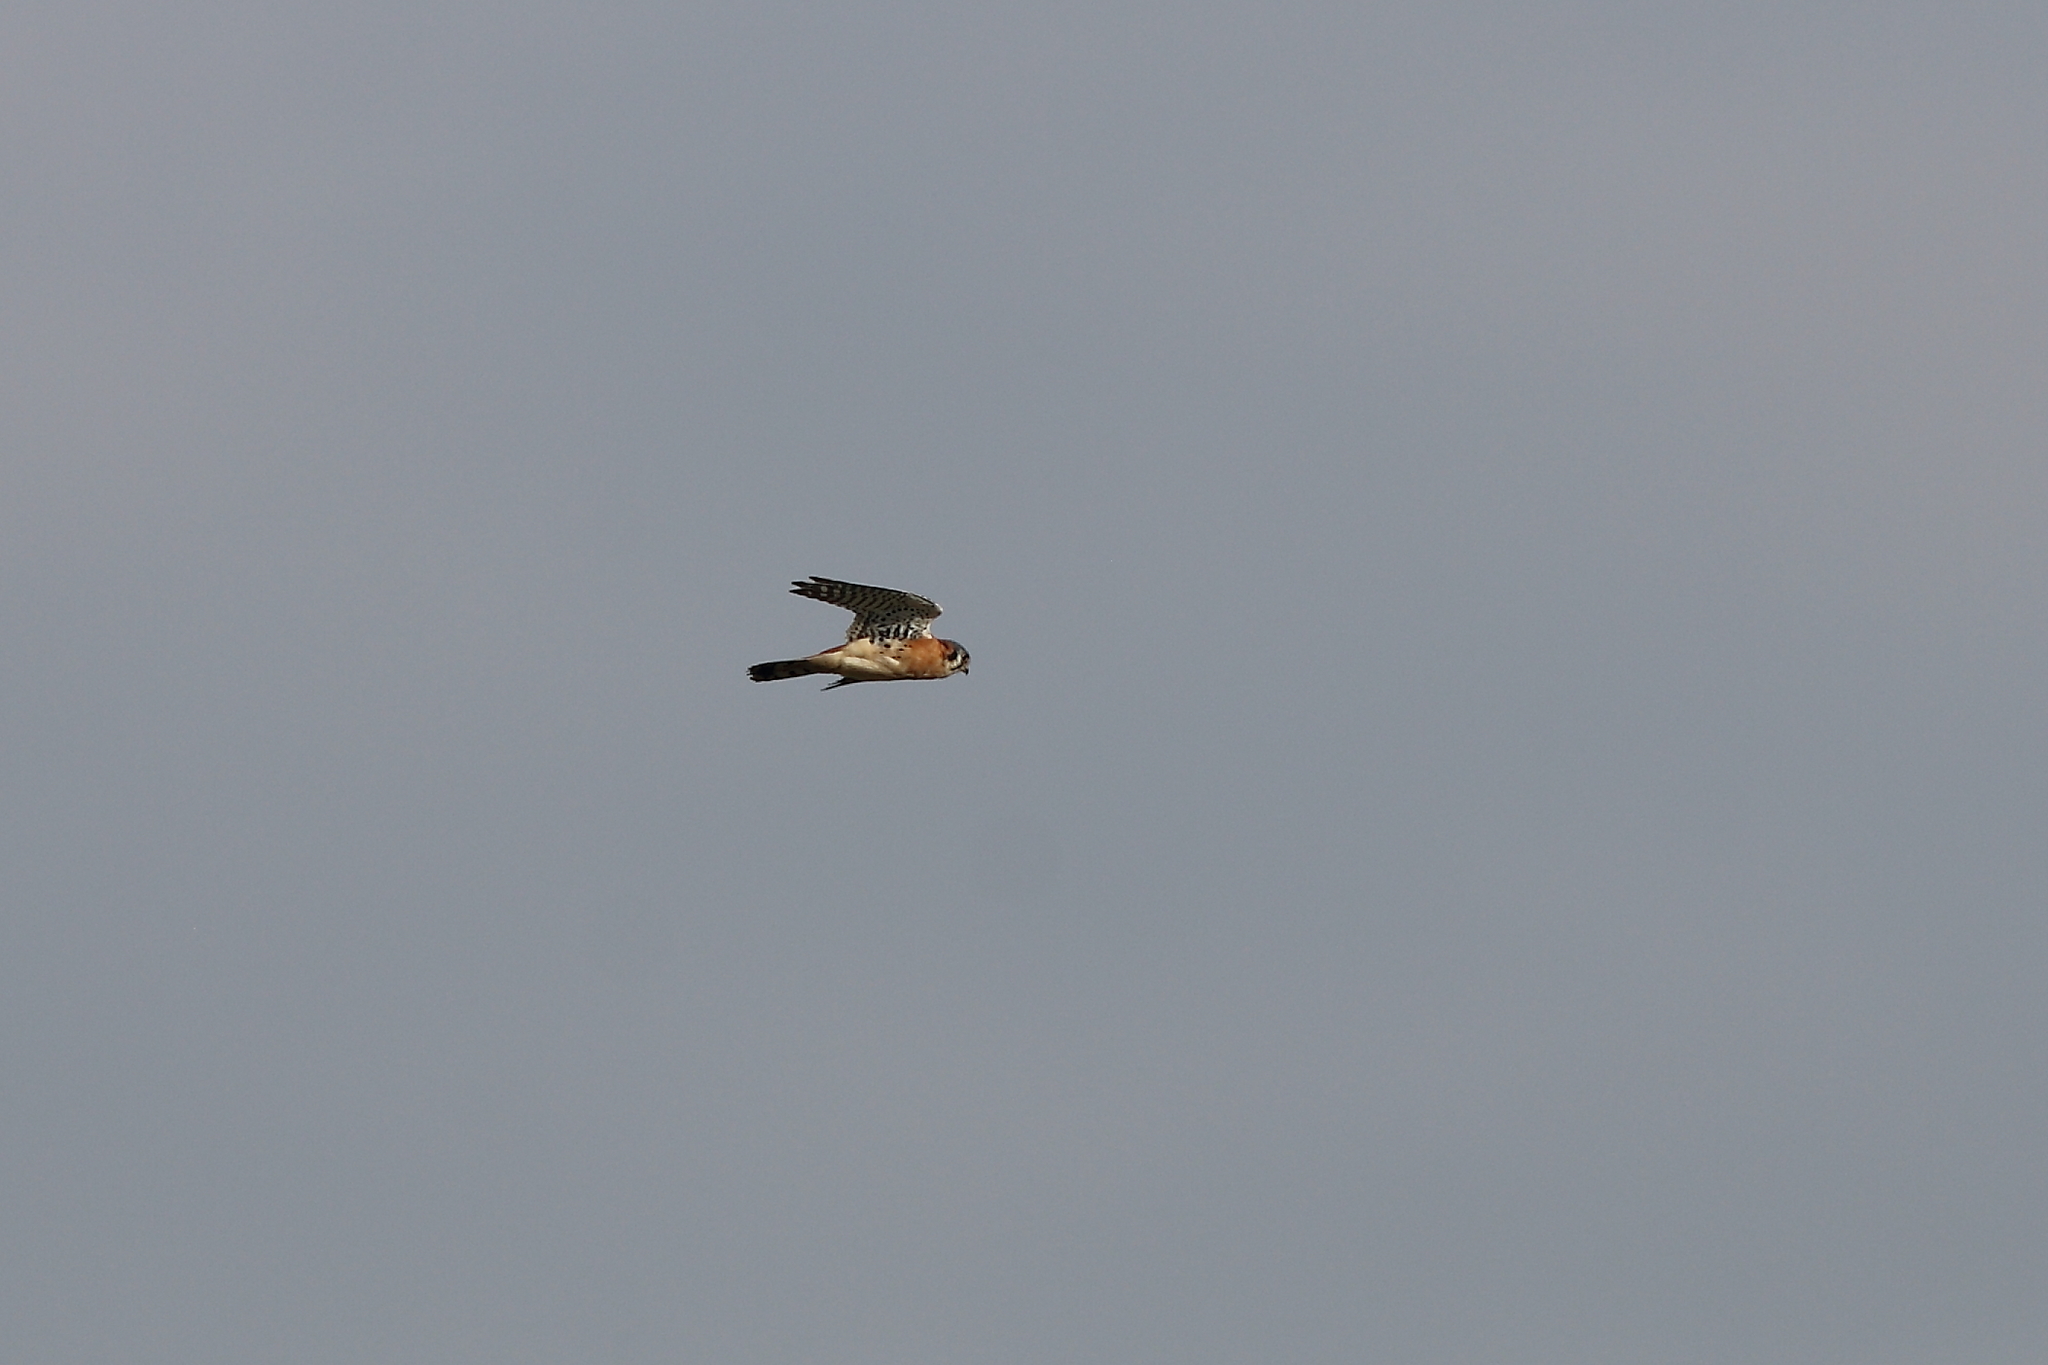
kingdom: Animalia
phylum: Chordata
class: Aves
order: Falconiformes
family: Falconidae
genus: Falco
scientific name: Falco sparverius
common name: American kestrel
